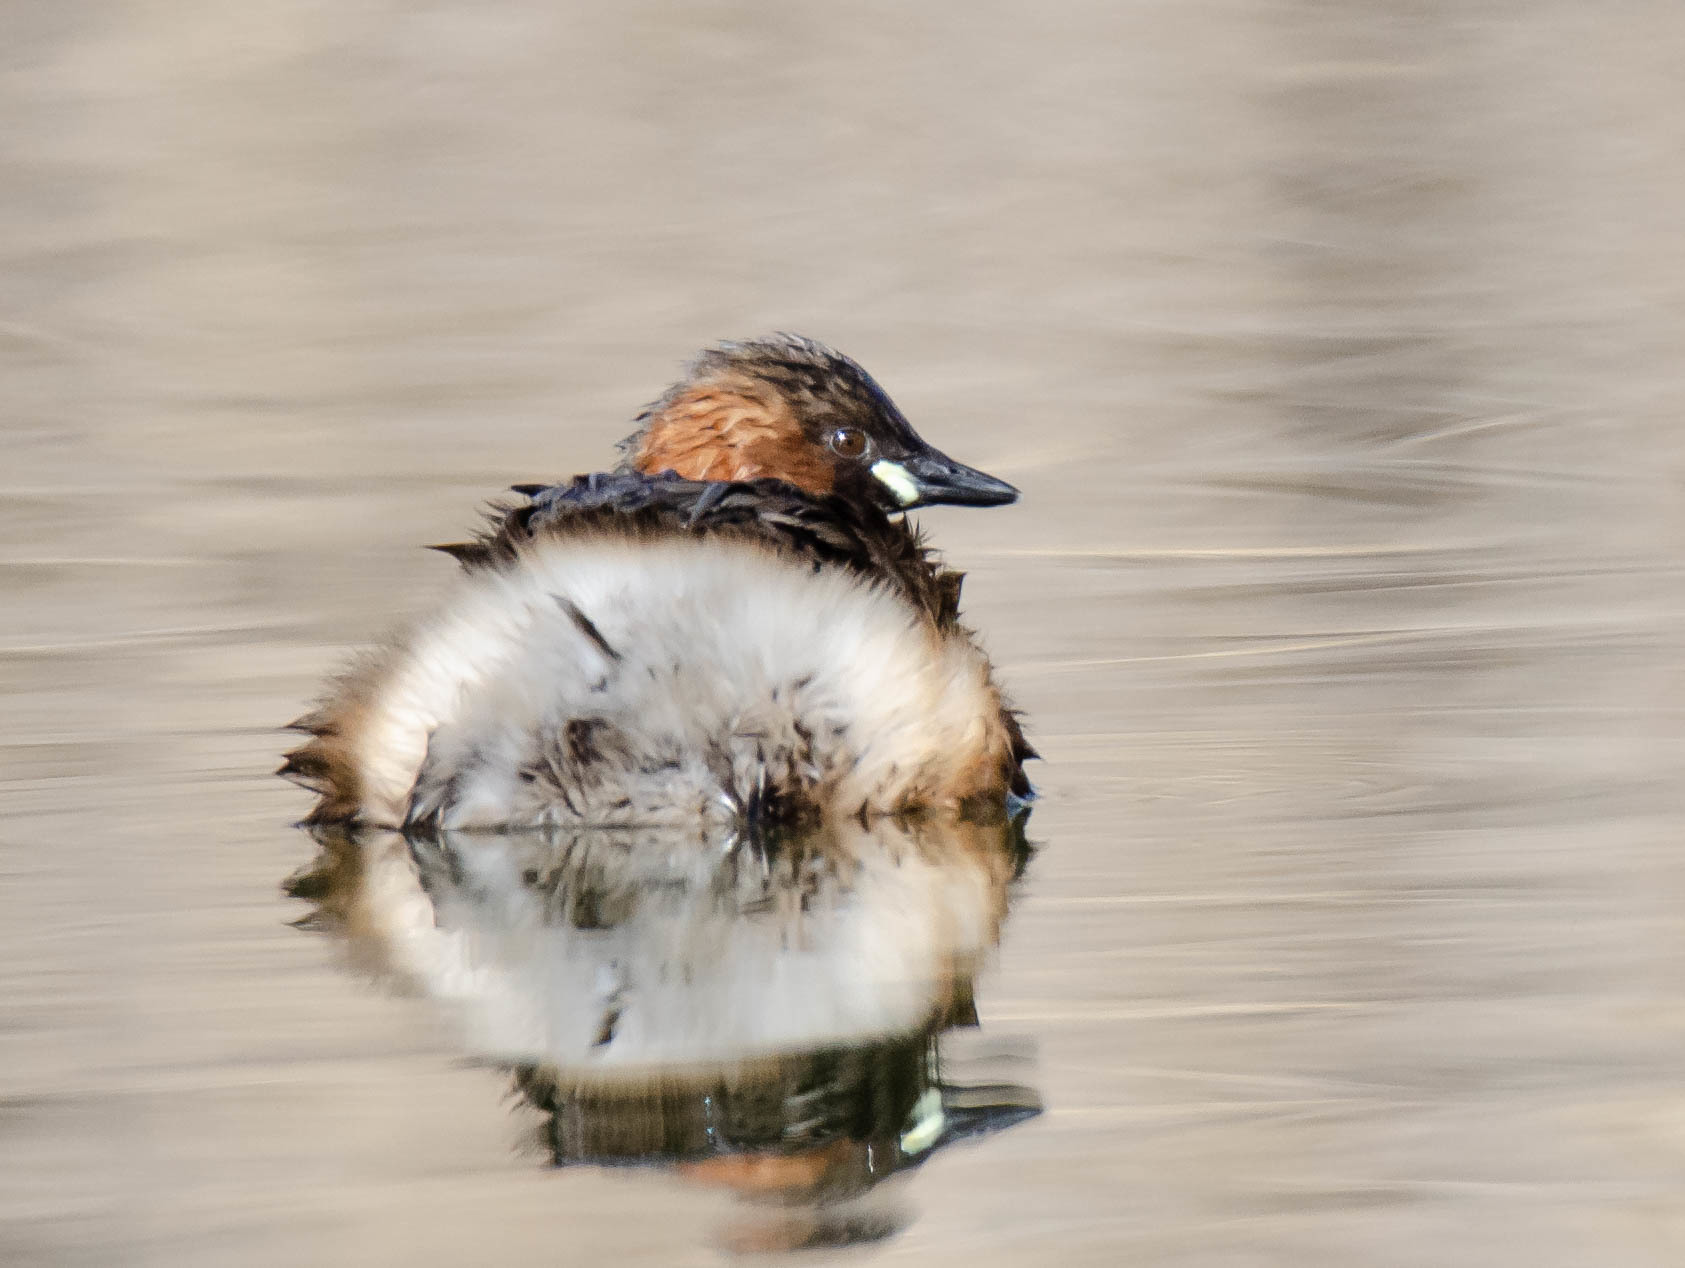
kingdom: Animalia
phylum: Chordata
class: Aves
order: Podicipediformes
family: Podicipedidae
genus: Tachybaptus
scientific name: Tachybaptus ruficollis
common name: Little grebe
